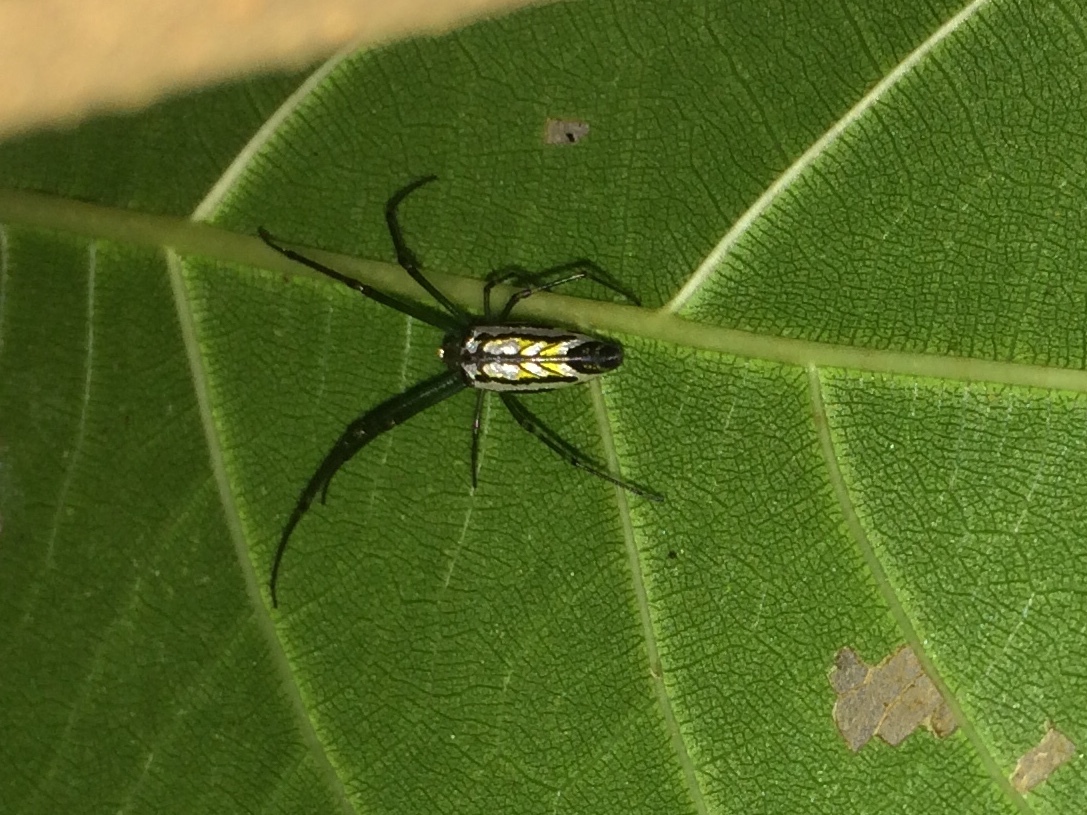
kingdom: Animalia
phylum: Arthropoda
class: Arachnida
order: Araneae
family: Tetragnathidae
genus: Leucauge
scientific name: Leucauge decorata
